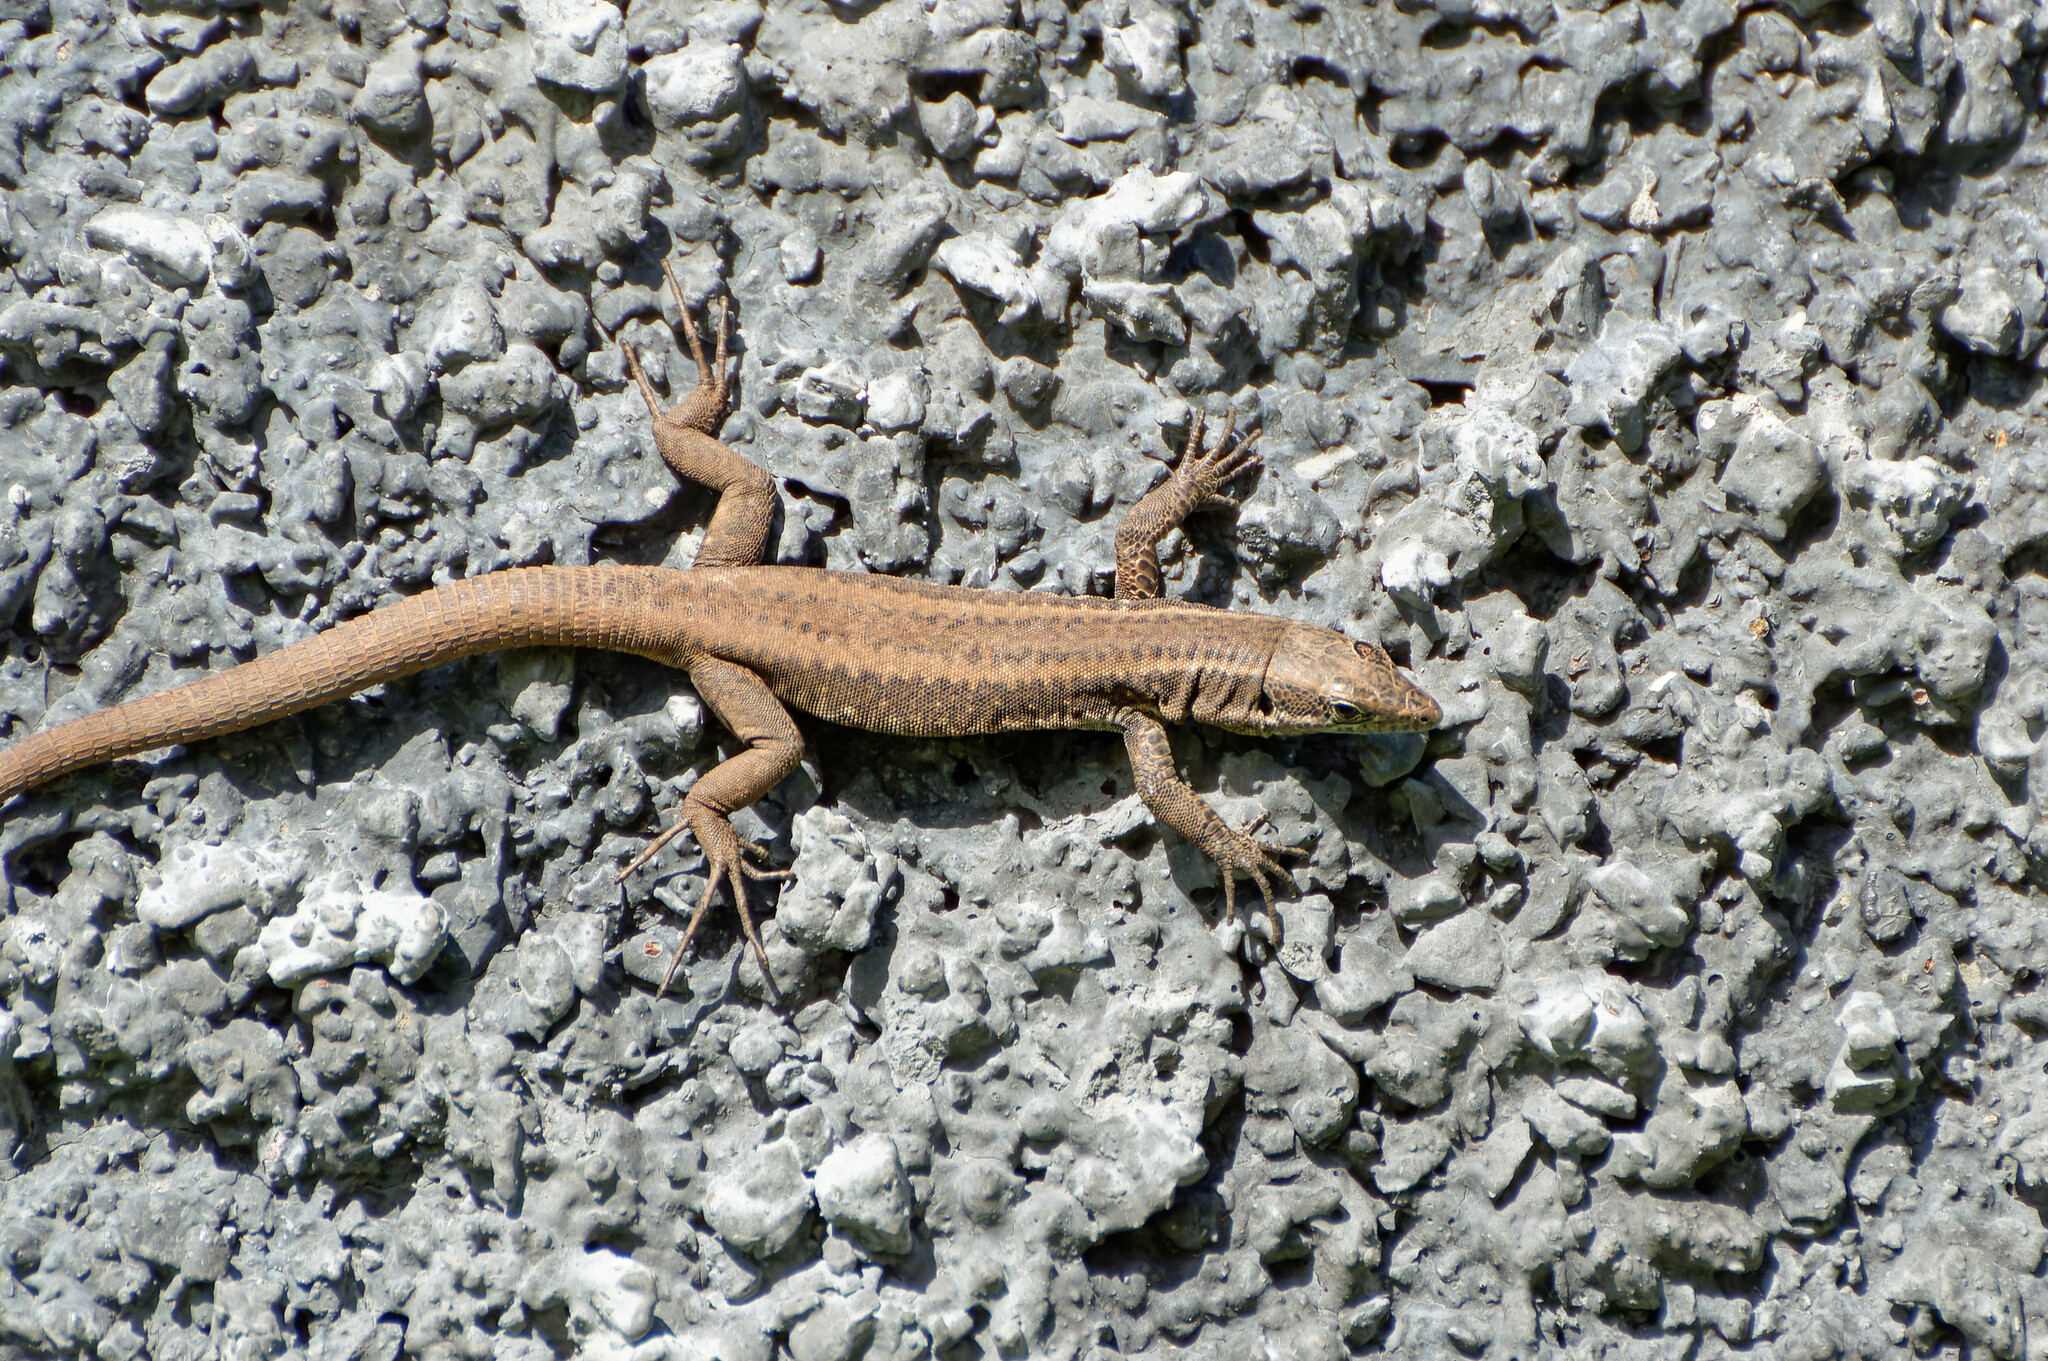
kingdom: Animalia
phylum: Chordata
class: Squamata
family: Lacertidae
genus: Teira
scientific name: Teira dugesii
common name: Madeira lizard
